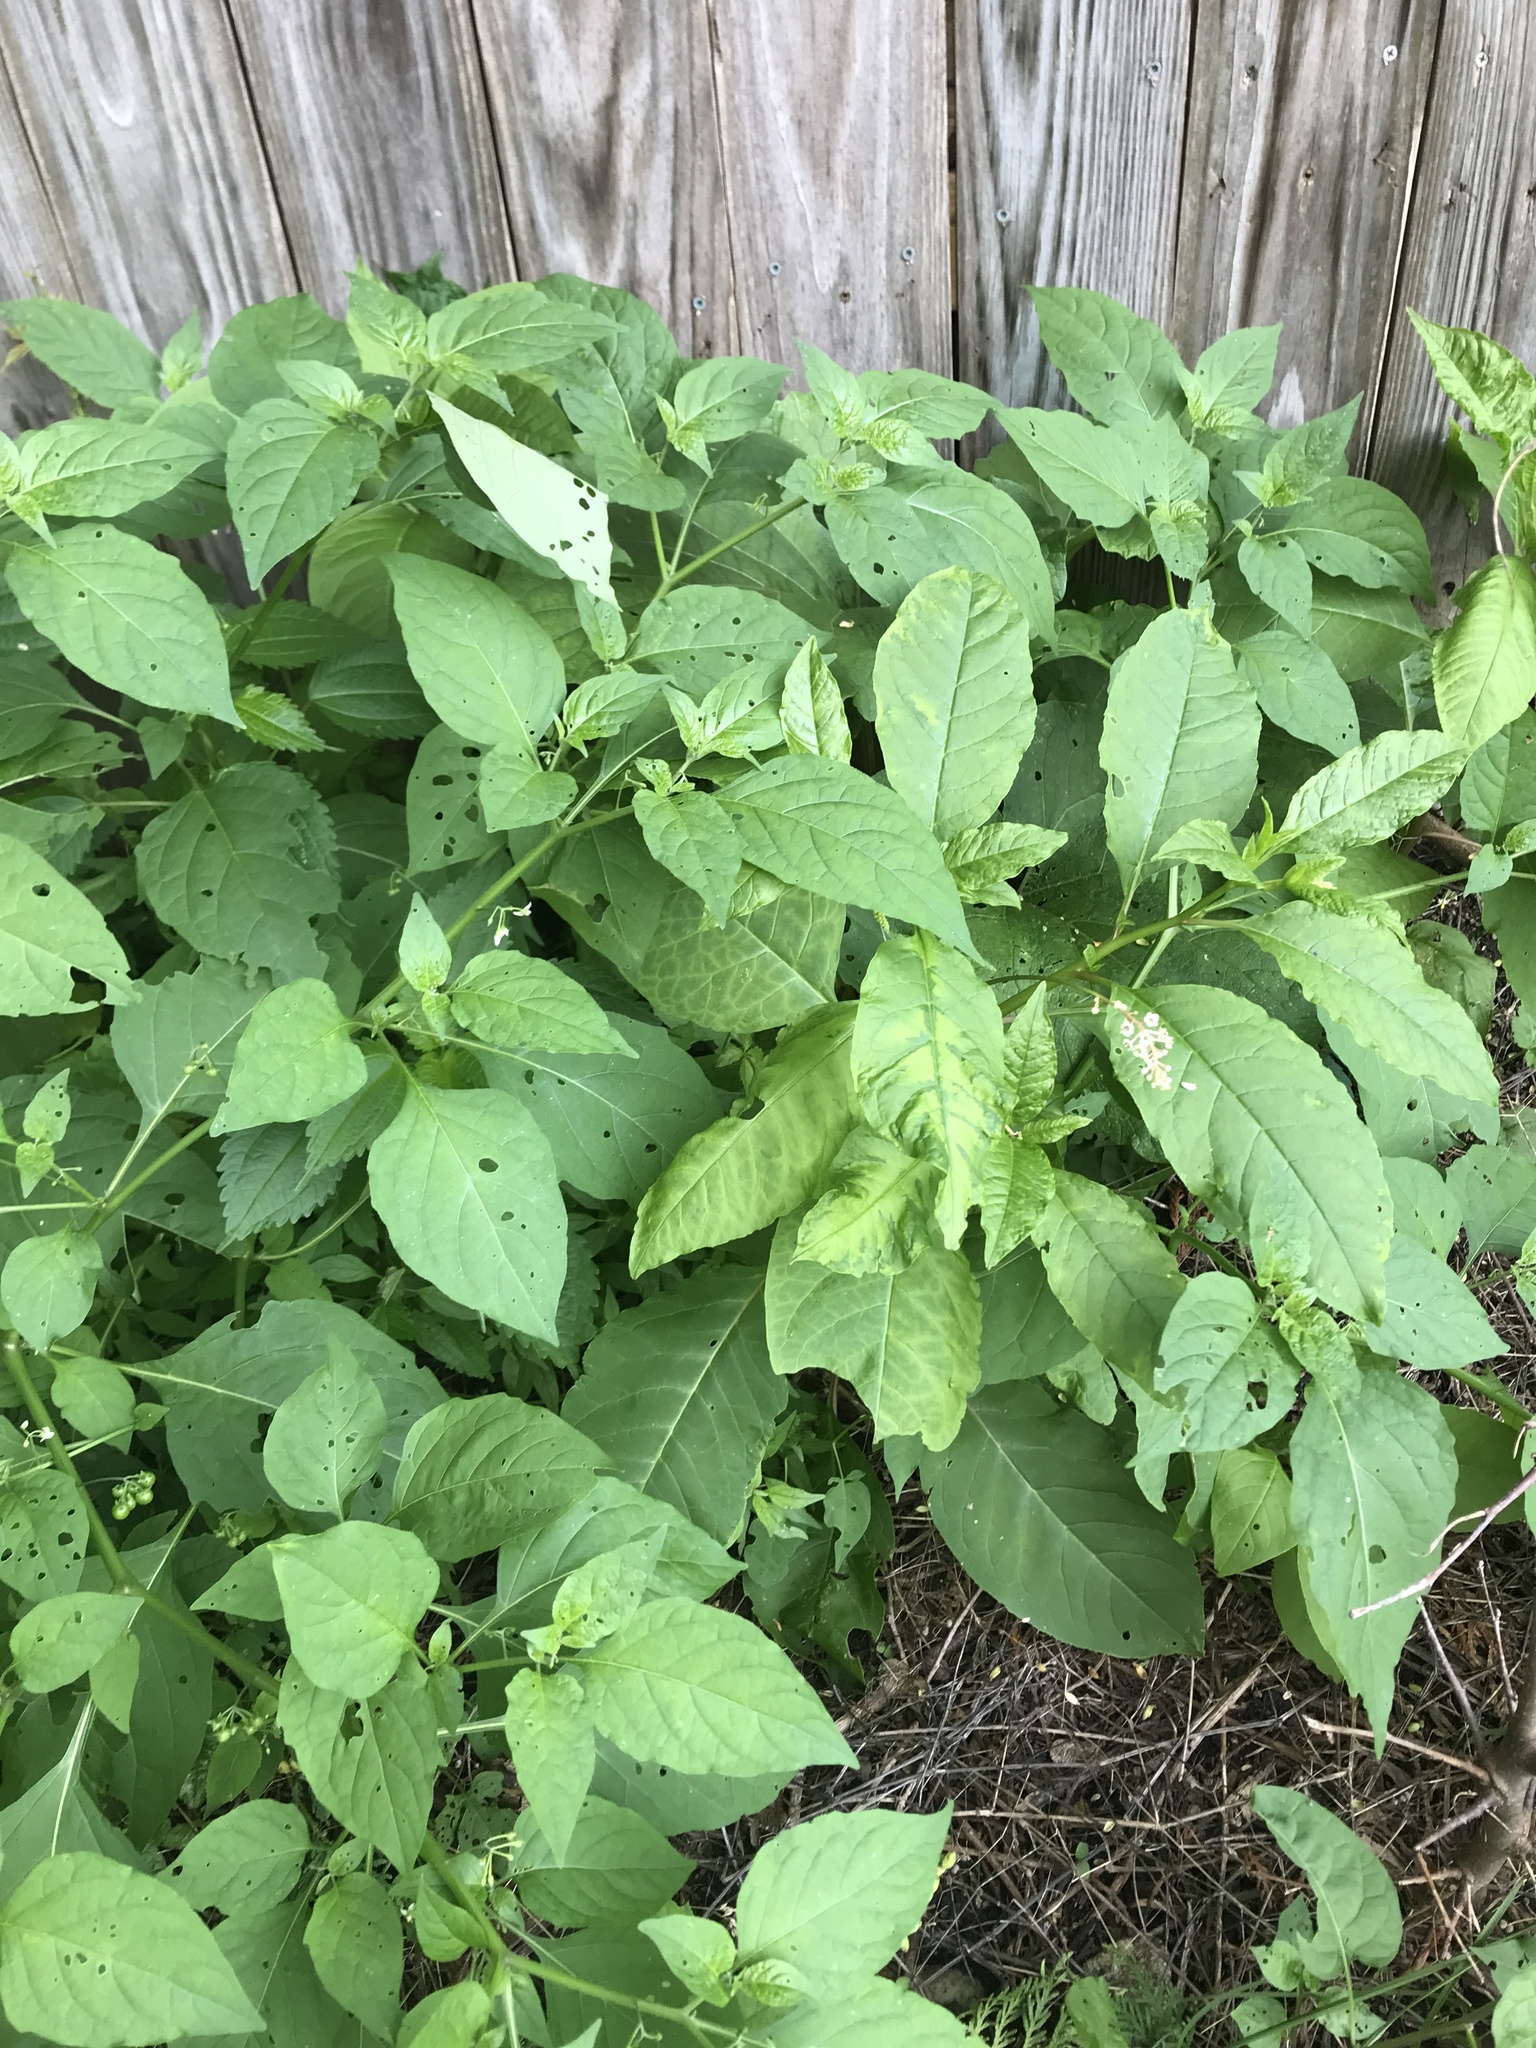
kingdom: Plantae
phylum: Tracheophyta
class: Magnoliopsida
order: Caryophyllales
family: Phytolaccaceae
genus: Phytolacca
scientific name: Phytolacca americana
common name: American pokeweed
